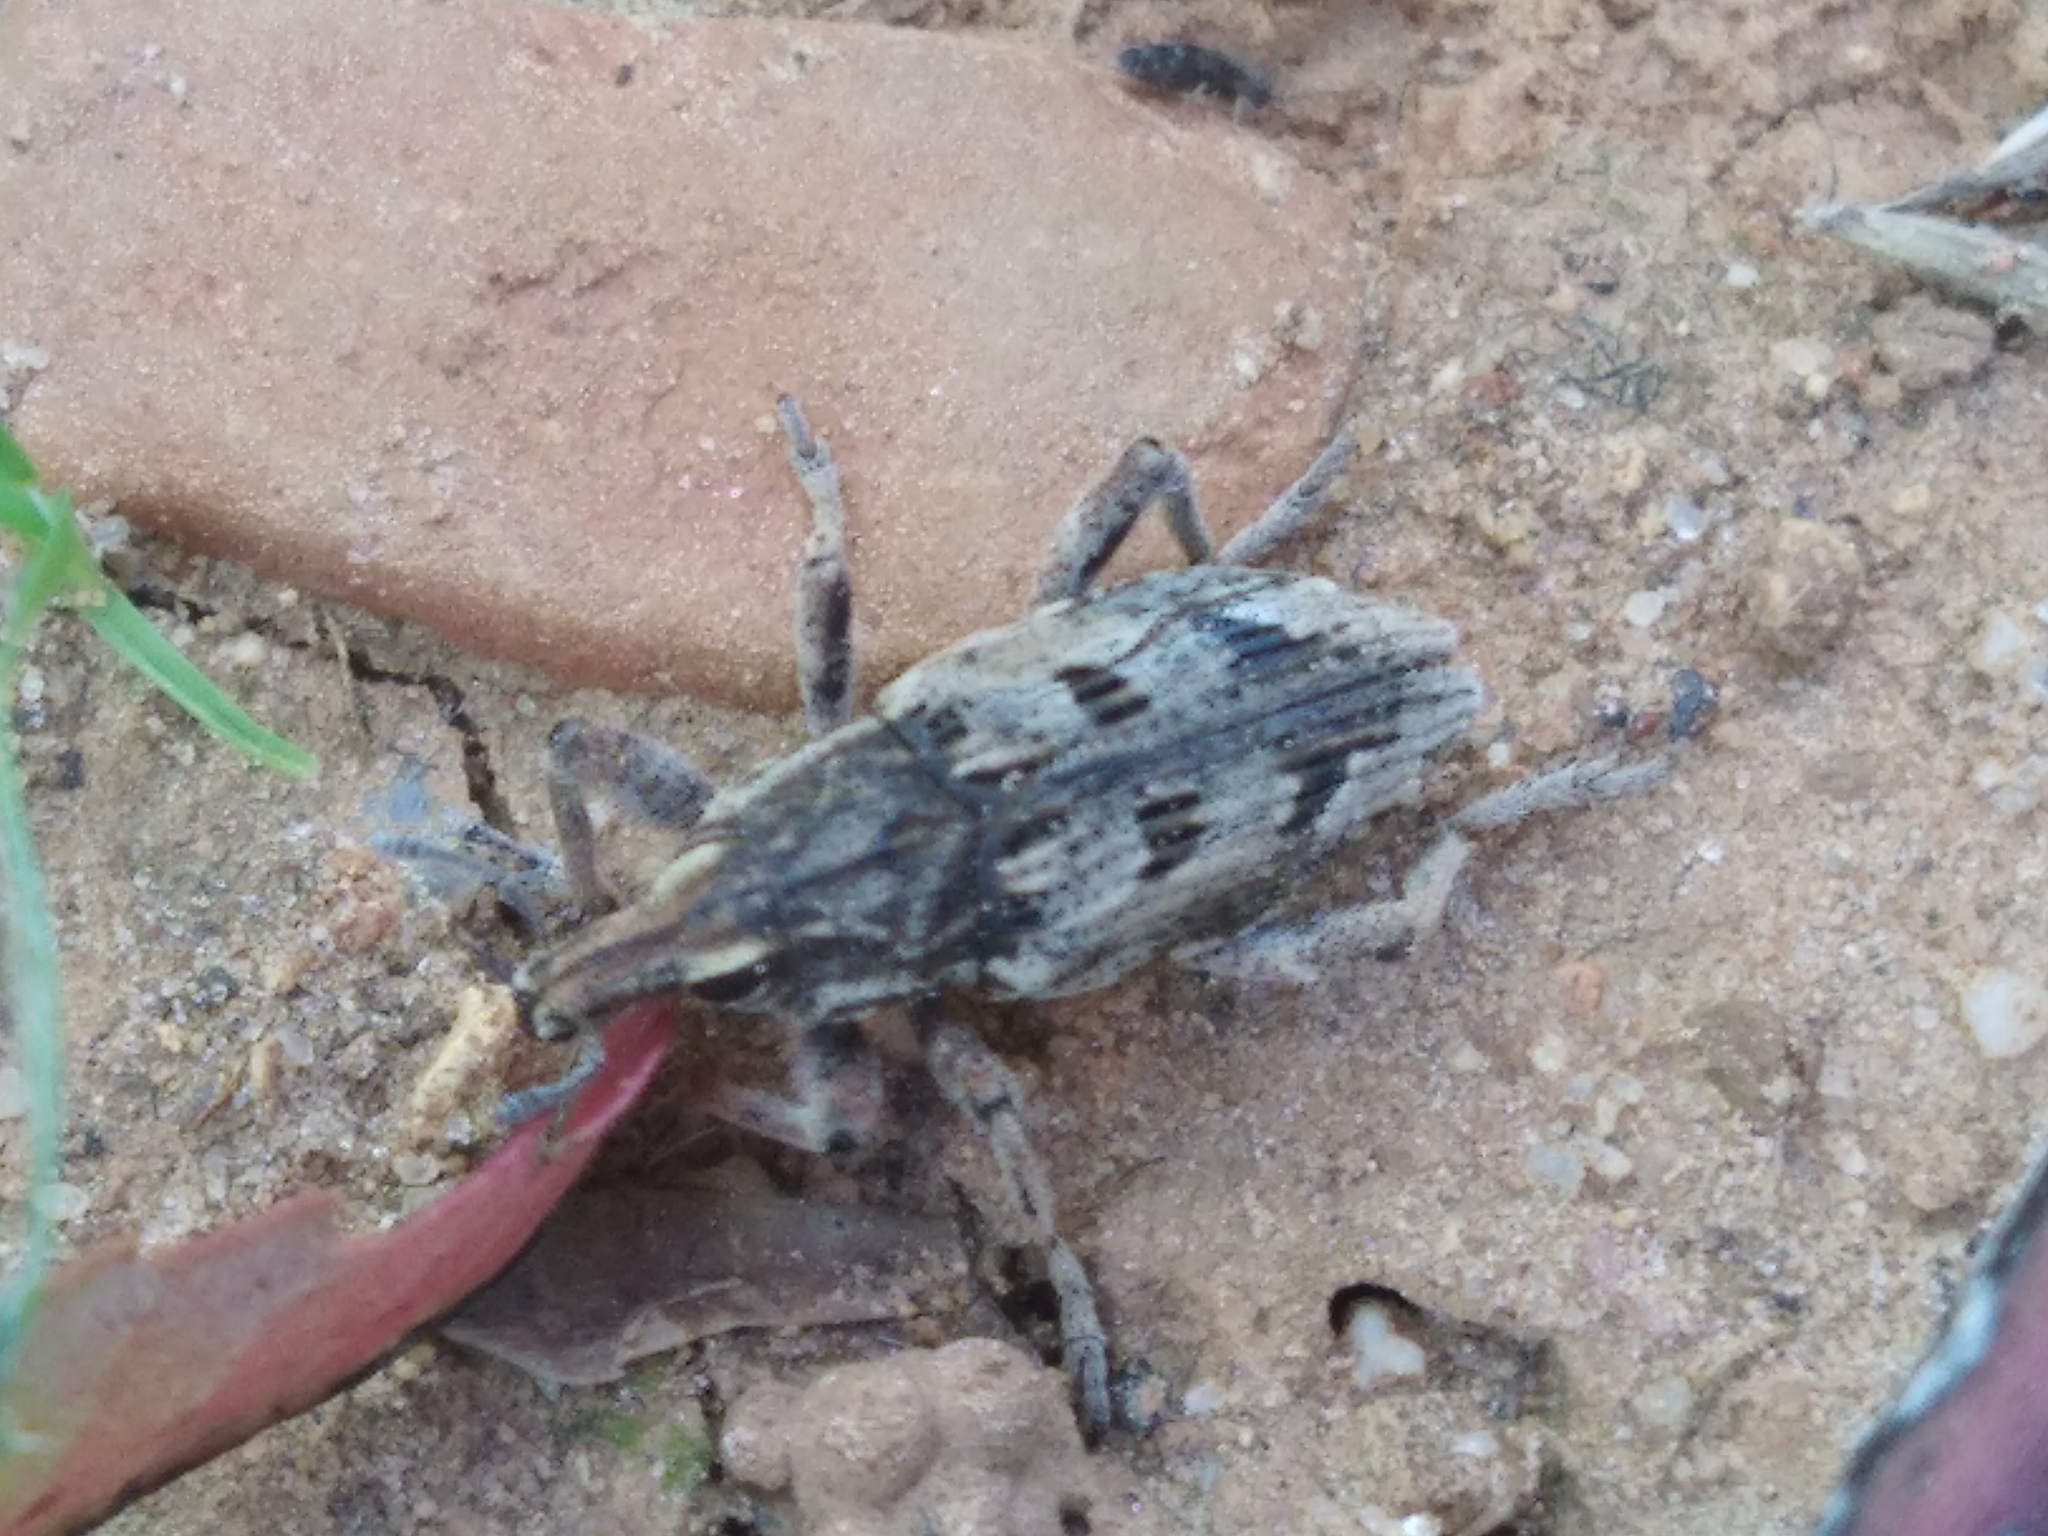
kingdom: Animalia
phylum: Arthropoda
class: Insecta
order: Coleoptera
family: Curculionidae
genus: Coniocleonus
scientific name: Coniocleonus excoriatus
